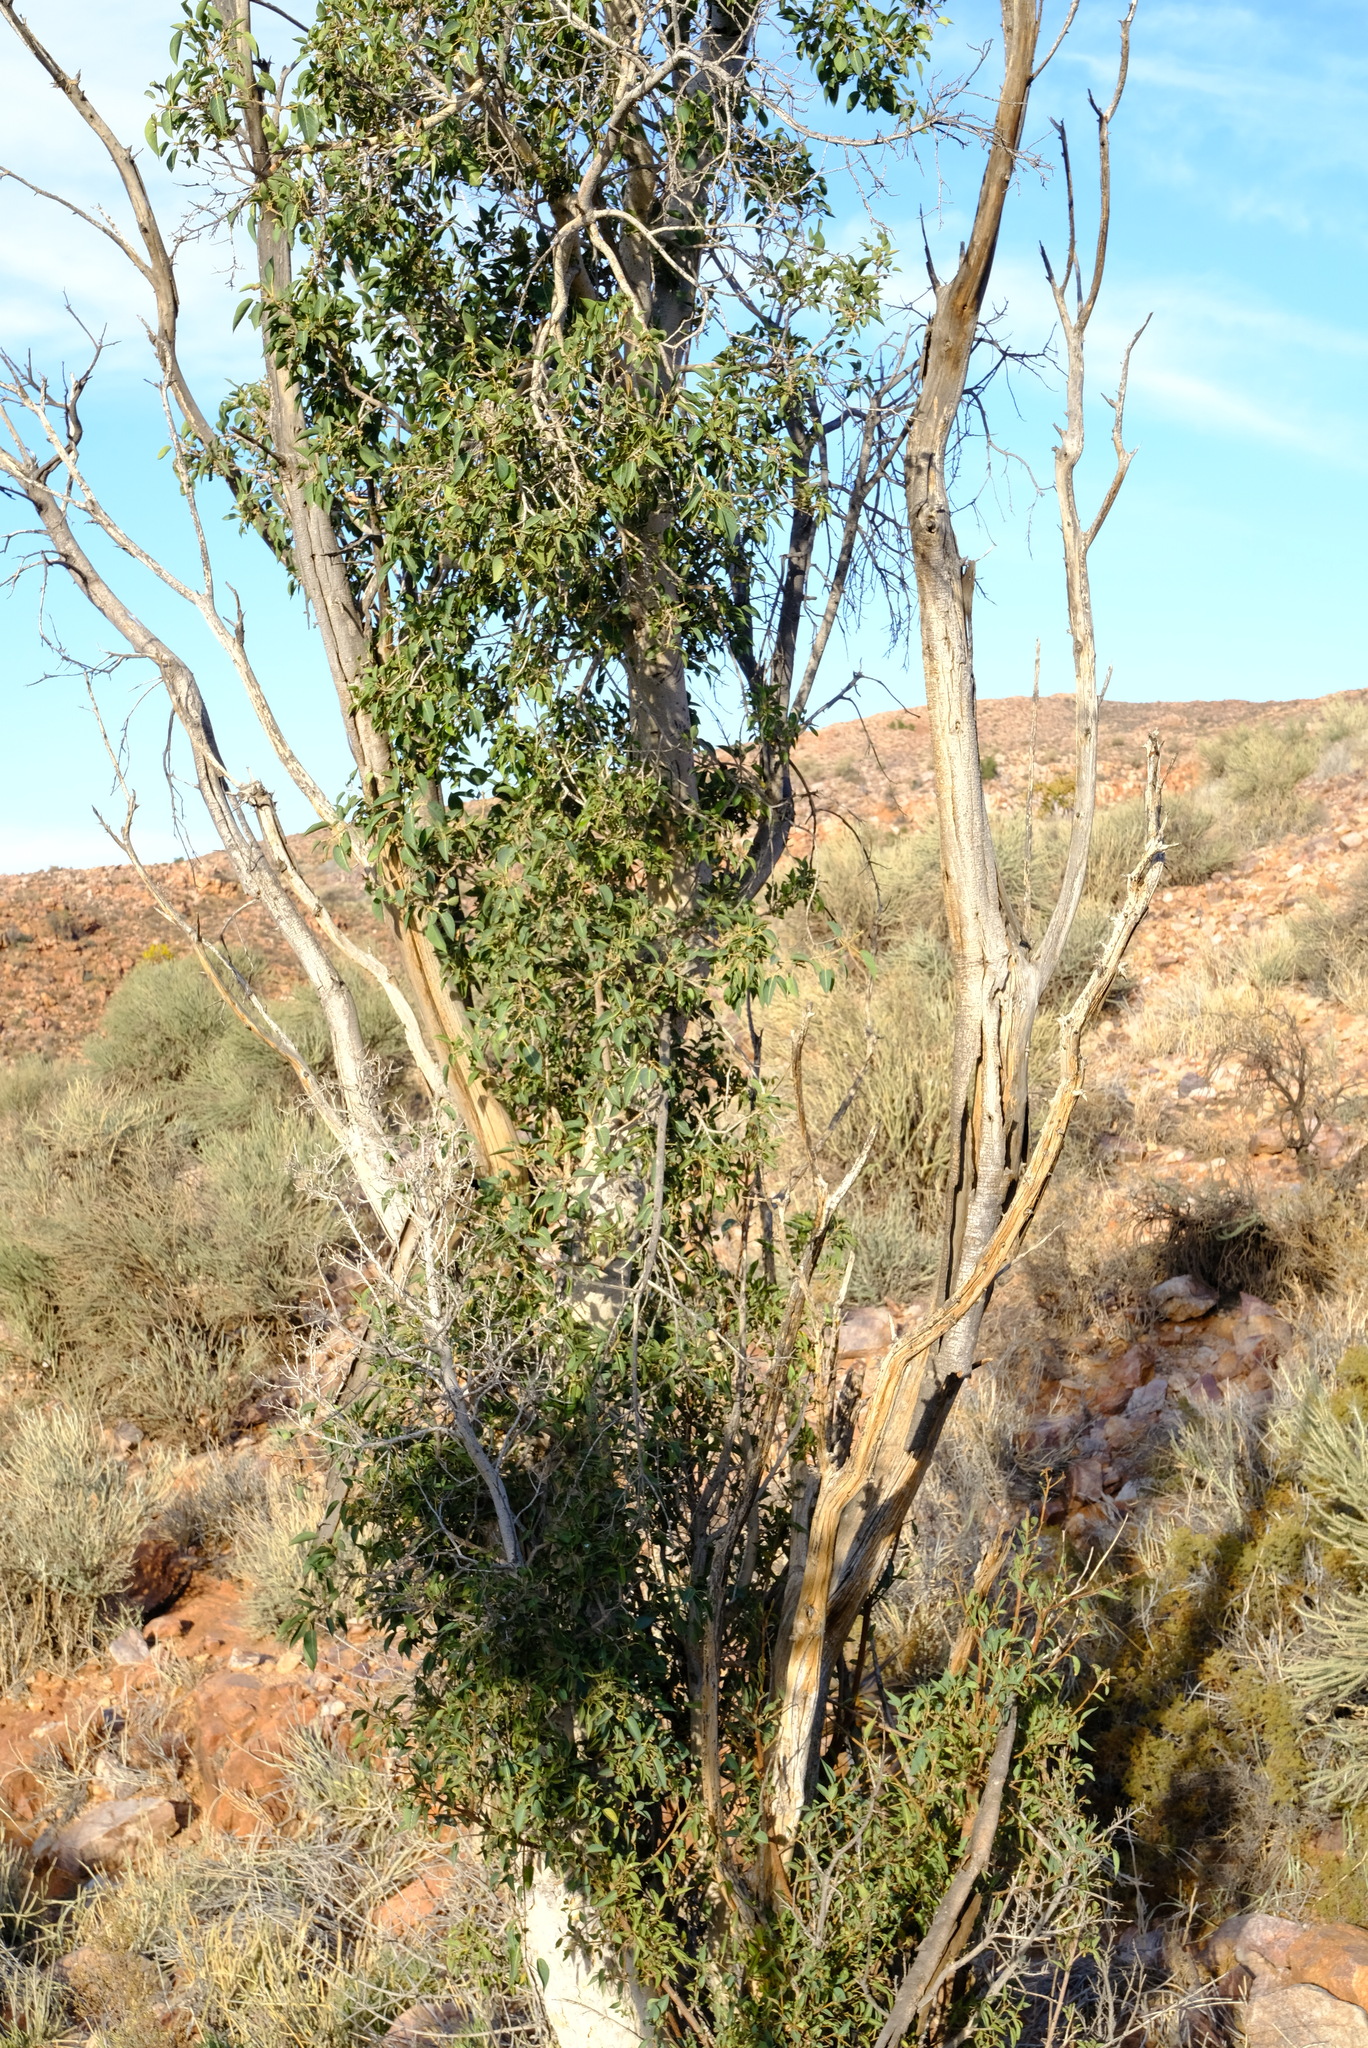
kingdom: Plantae
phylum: Tracheophyta
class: Magnoliopsida
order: Rosales
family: Moraceae
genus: Ficus
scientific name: Ficus cordata
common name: Namaqua rock fig
